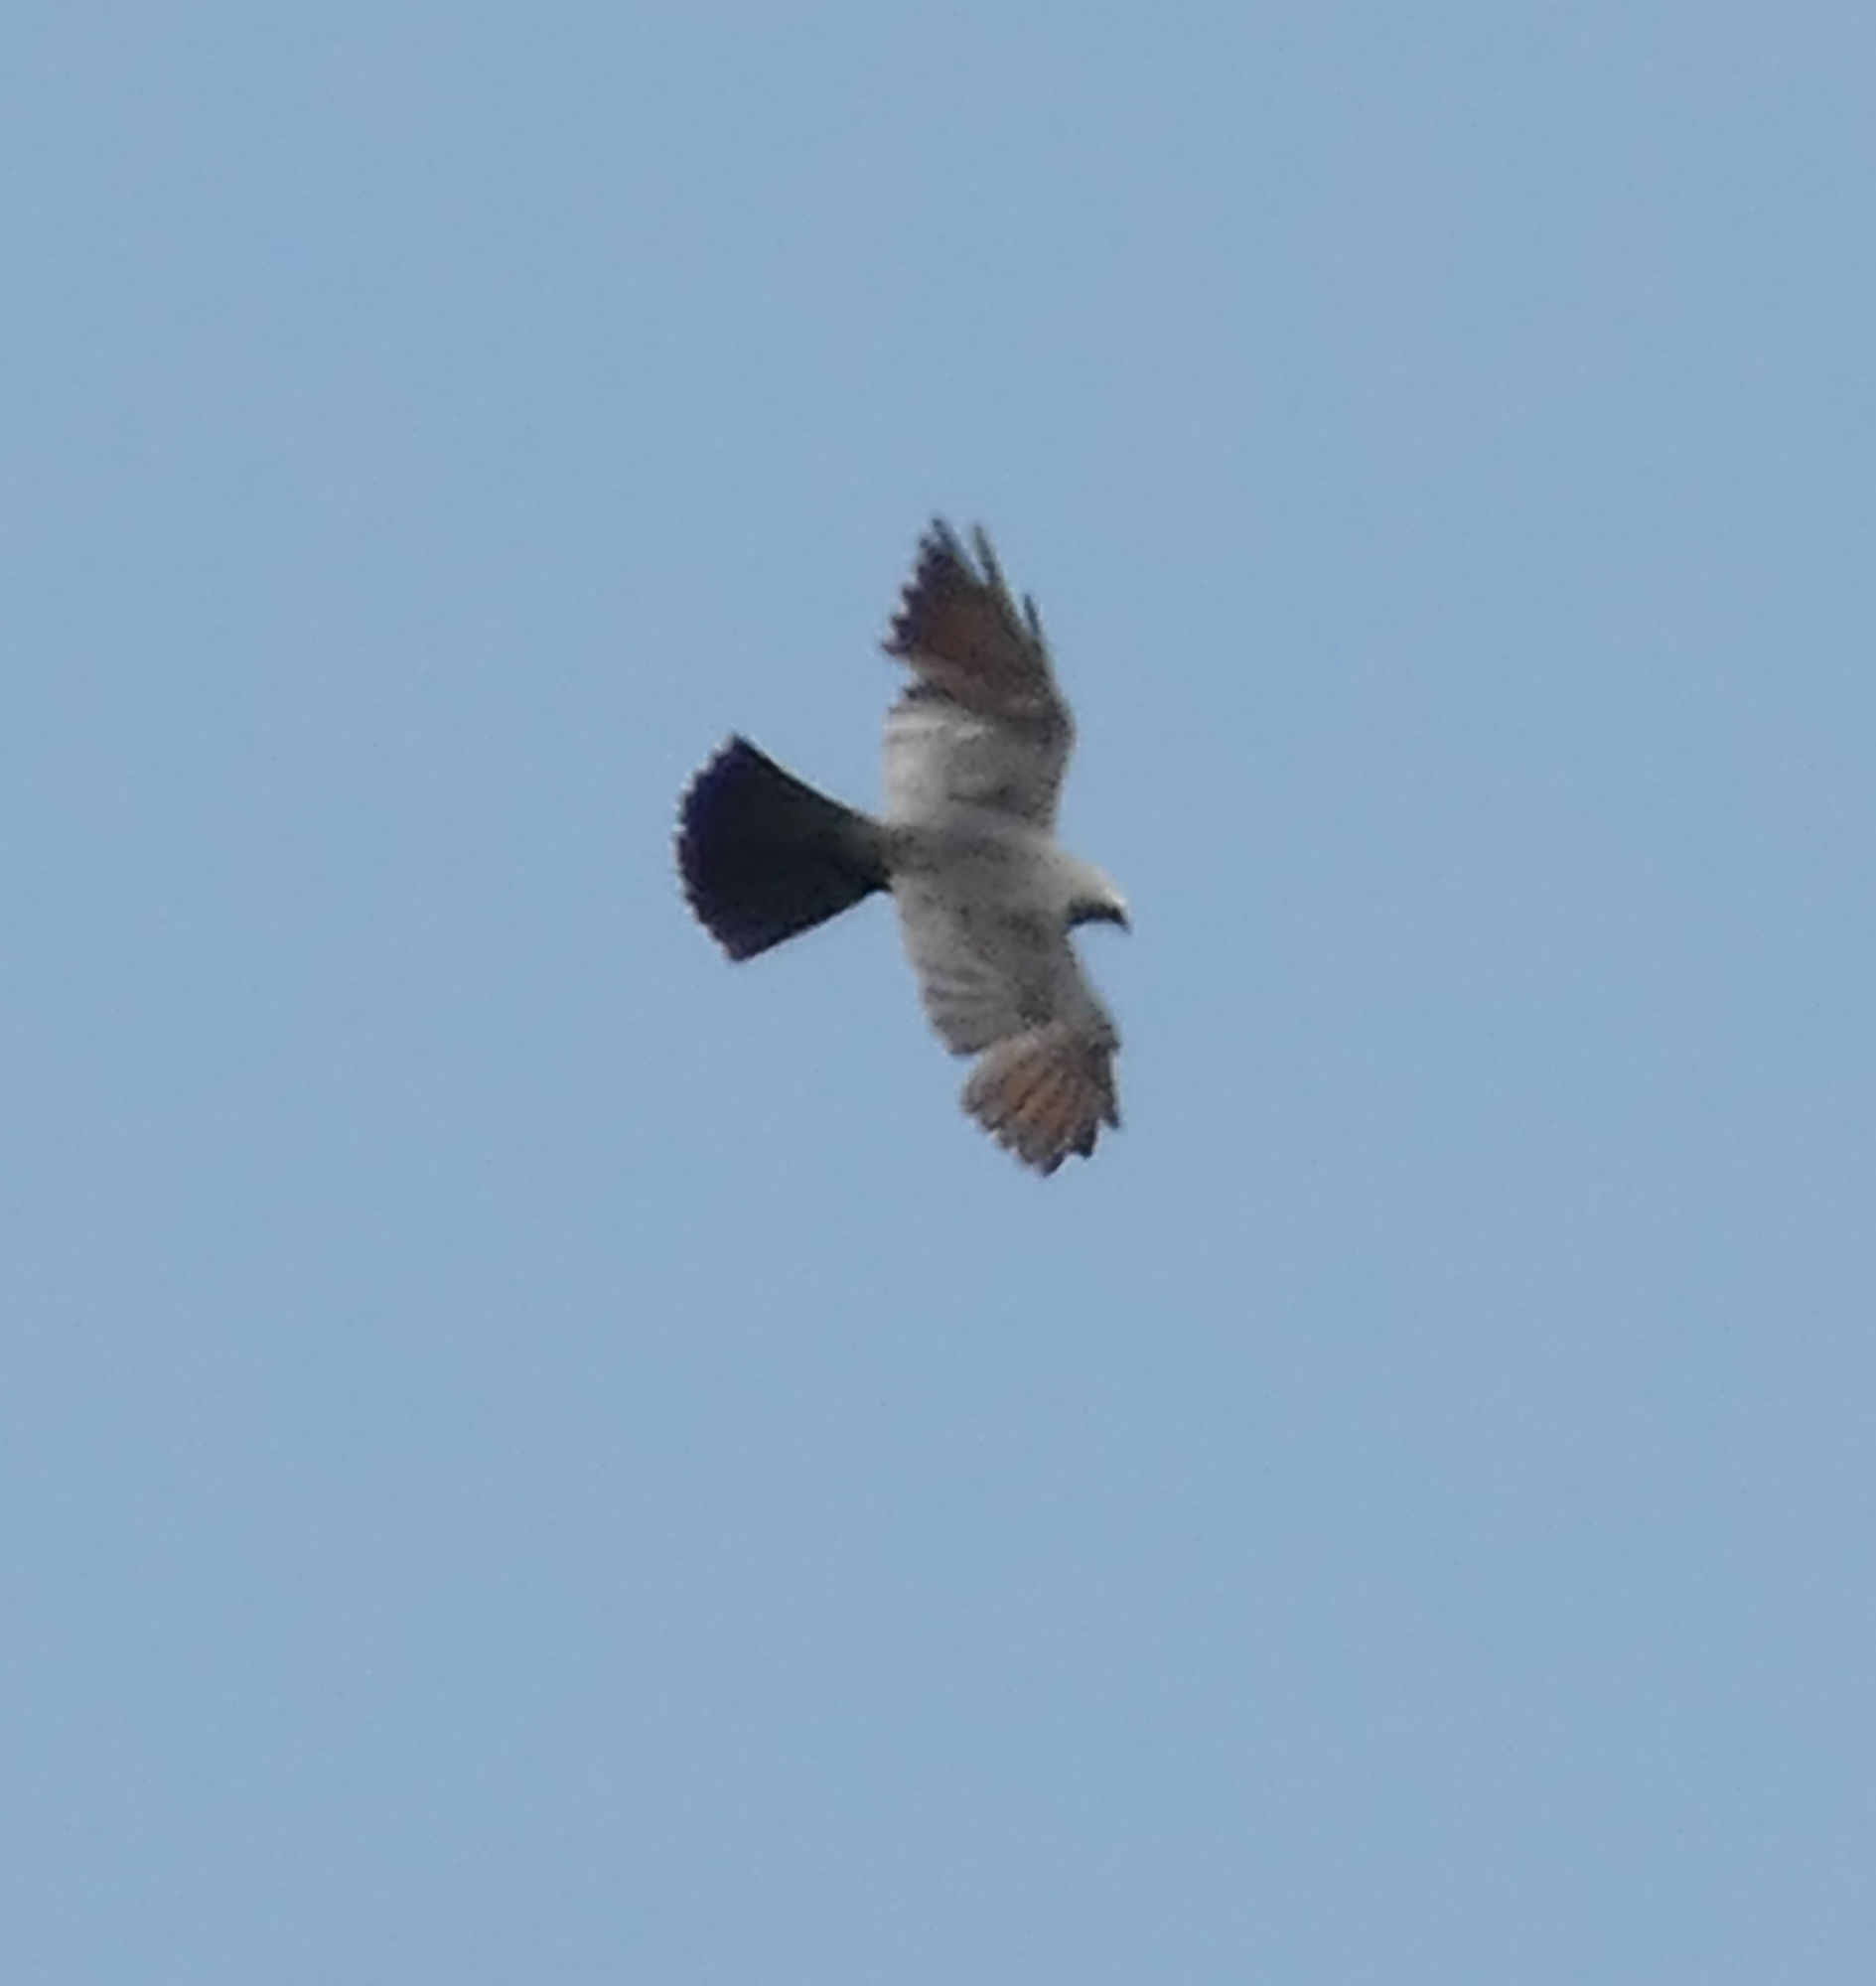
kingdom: Animalia
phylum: Chordata
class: Aves
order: Accipitriformes
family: Accipitridae
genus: Ictinia
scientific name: Ictinia mississippiensis
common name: Mississippi kite
